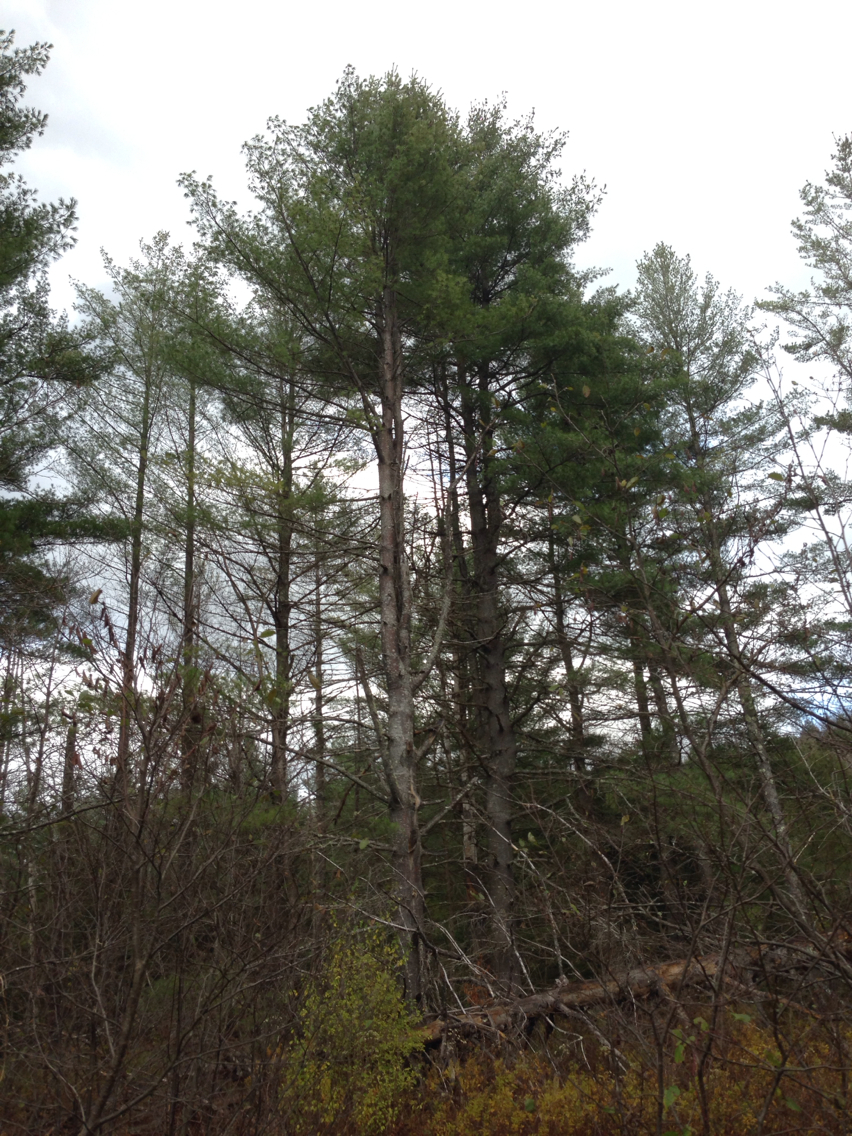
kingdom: Plantae
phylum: Tracheophyta
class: Pinopsida
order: Pinales
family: Pinaceae
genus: Pinus
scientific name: Pinus strobus
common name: Weymouth pine
